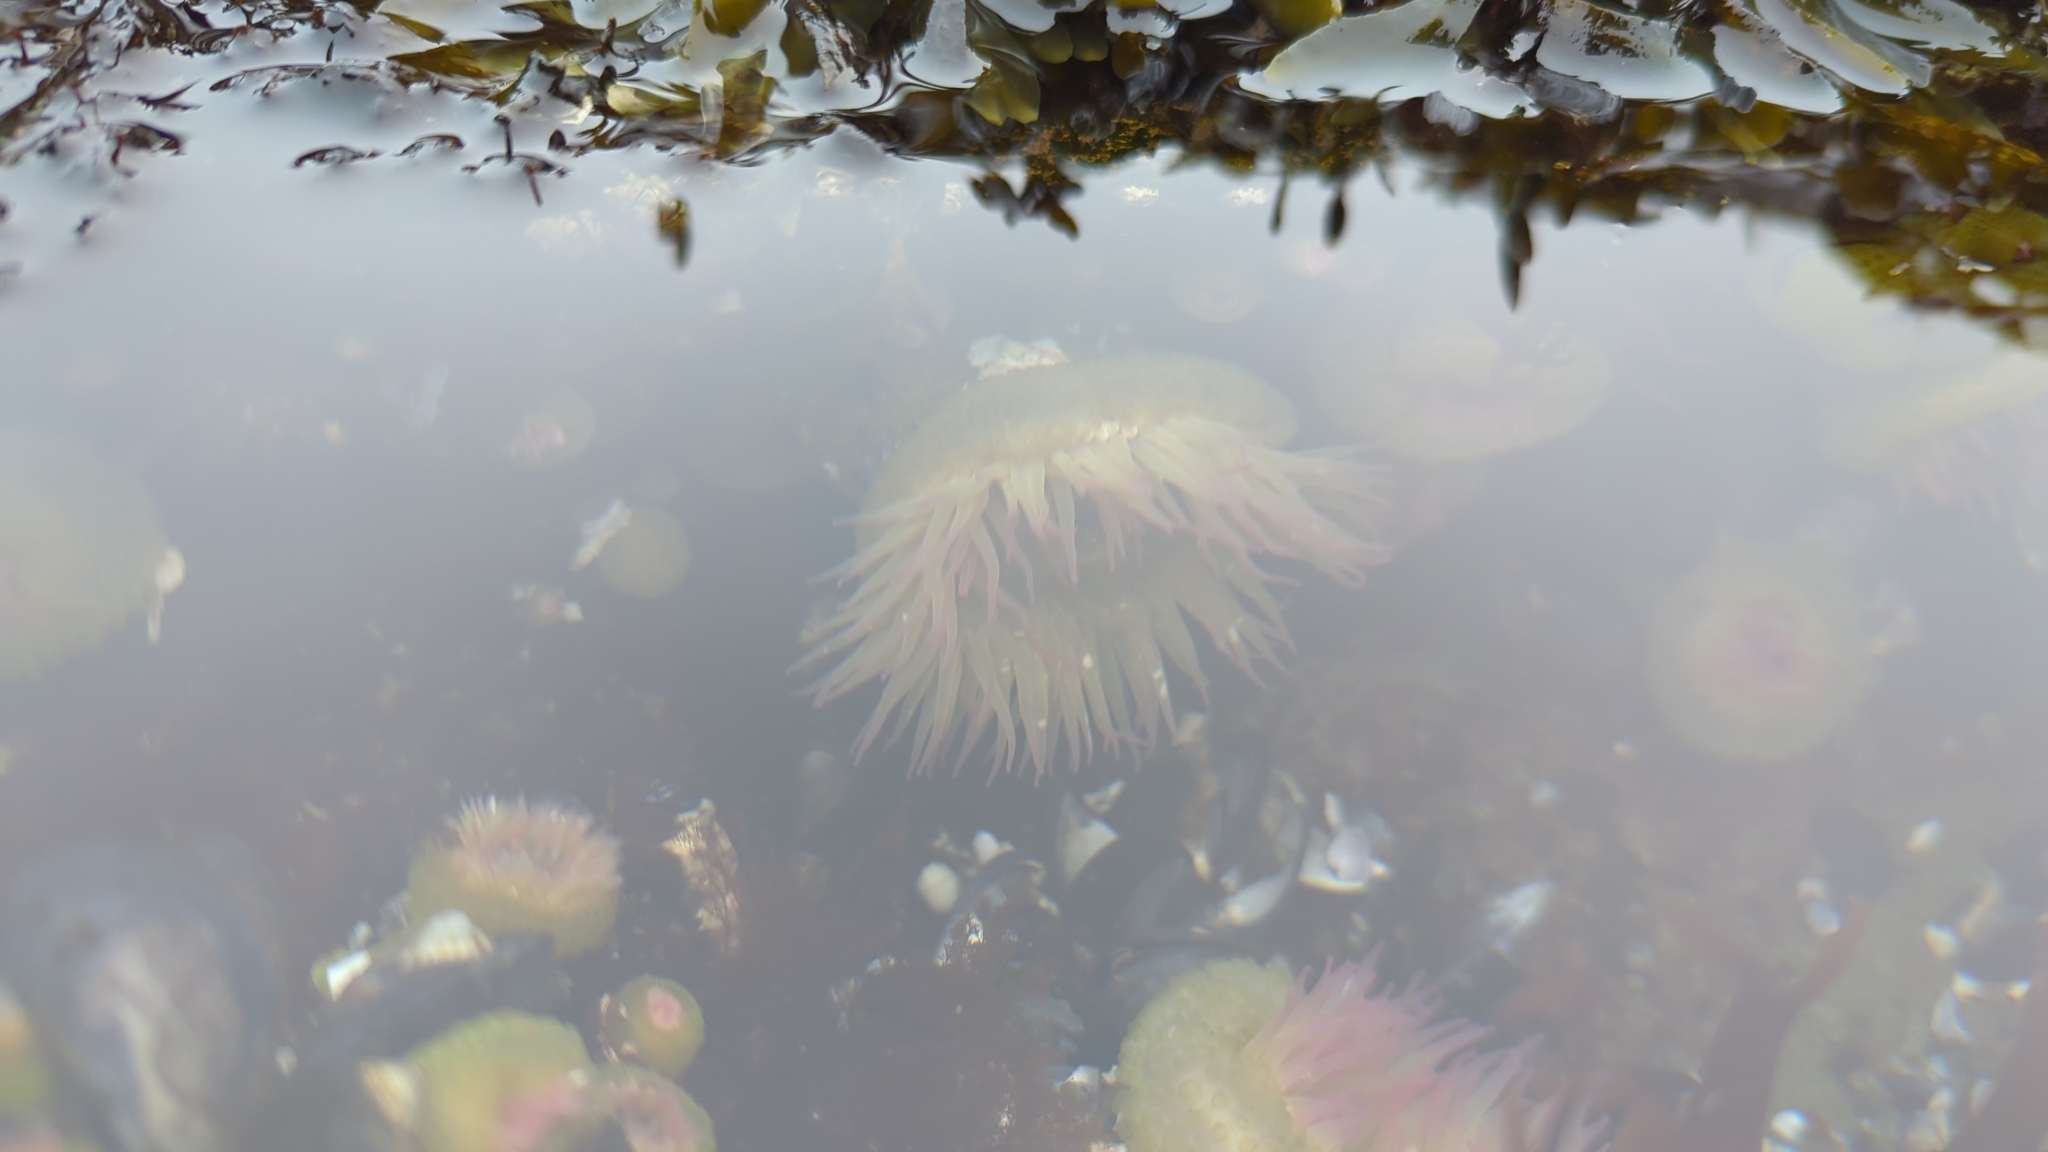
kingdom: Animalia
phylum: Cnidaria
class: Anthozoa
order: Actiniaria
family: Actiniidae
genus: Anthopleura
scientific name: Anthopleura elegantissima
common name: Clonal anemone
